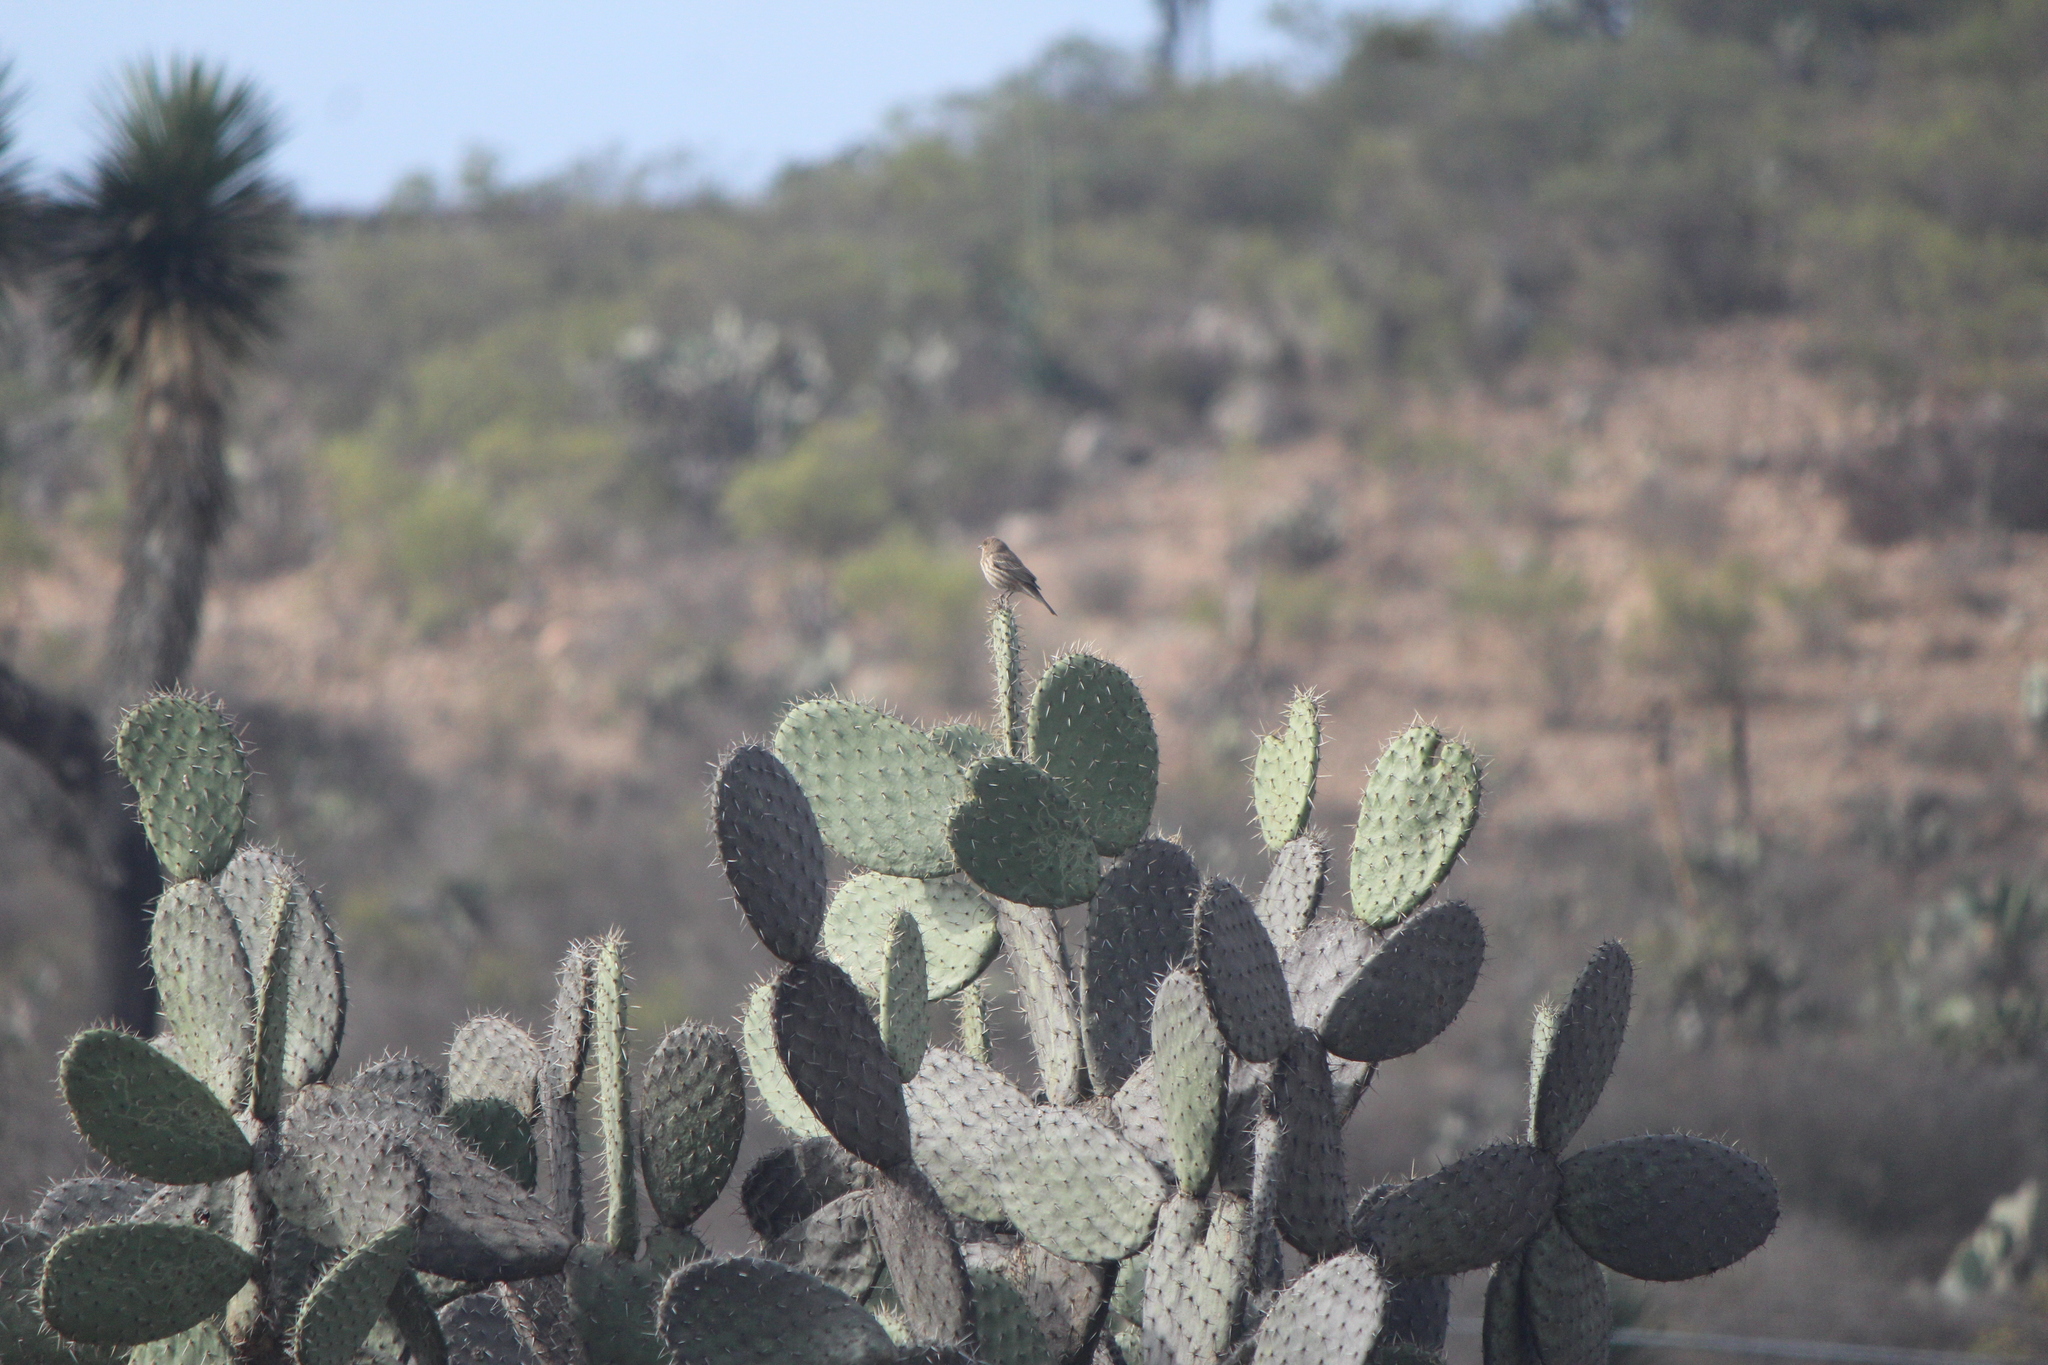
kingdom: Animalia
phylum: Chordata
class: Aves
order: Passeriformes
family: Fringillidae
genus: Haemorhous
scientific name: Haemorhous mexicanus
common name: House finch
